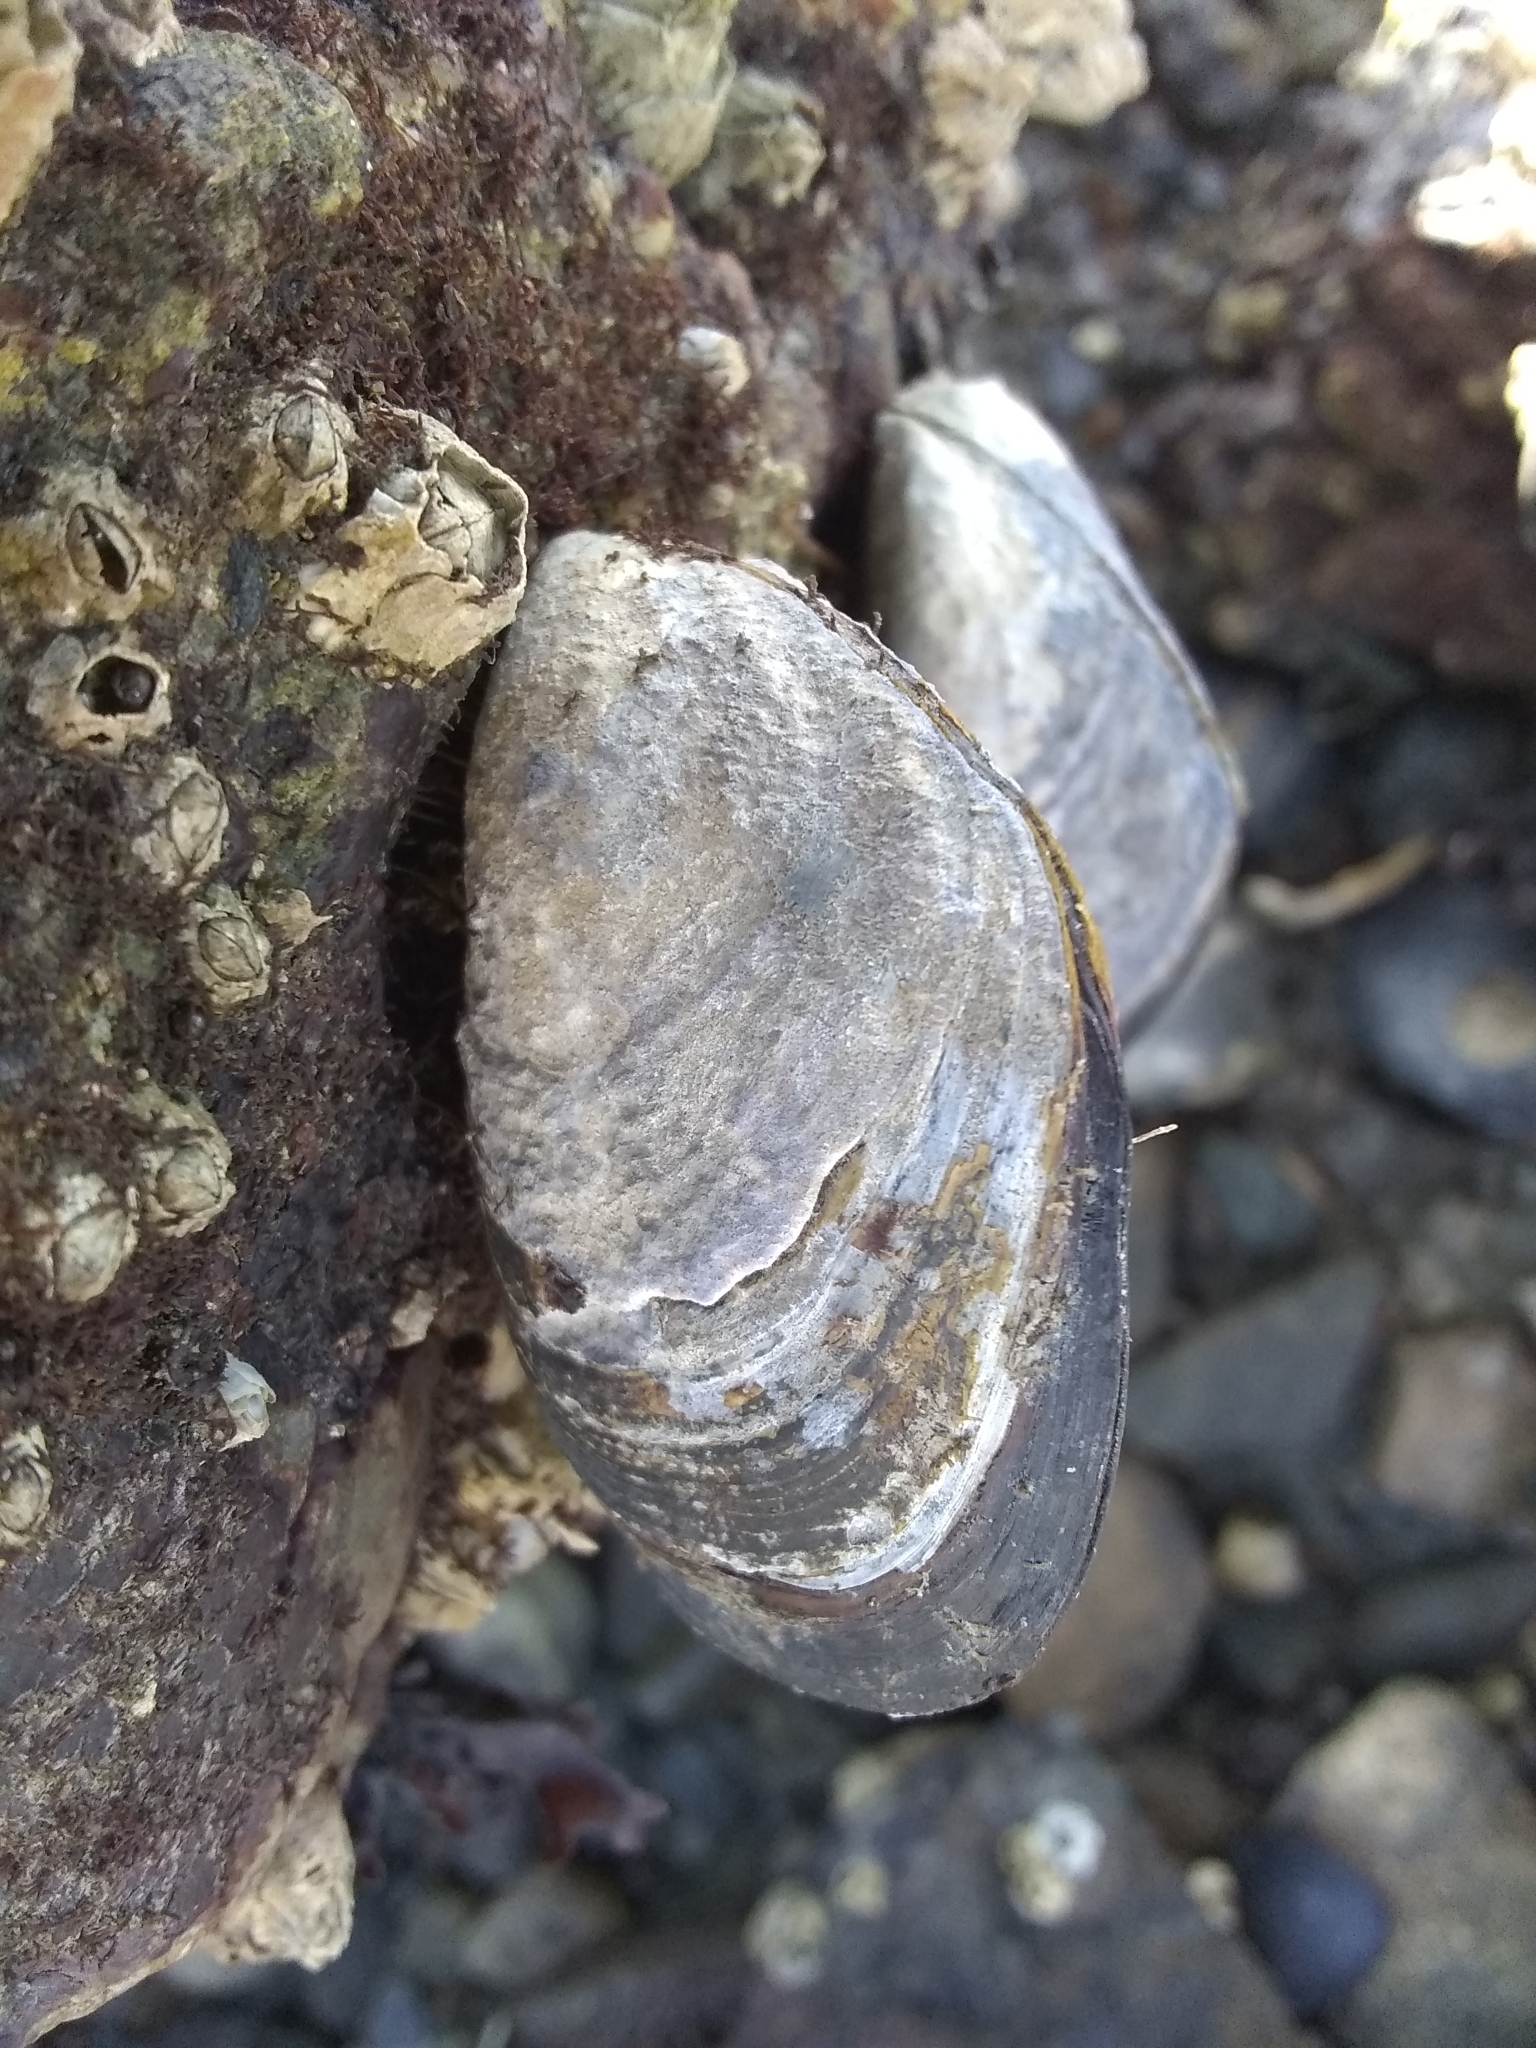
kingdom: Animalia
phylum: Mollusca
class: Bivalvia
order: Mytilida
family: Mytilidae
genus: Mytilus
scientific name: Mytilus
